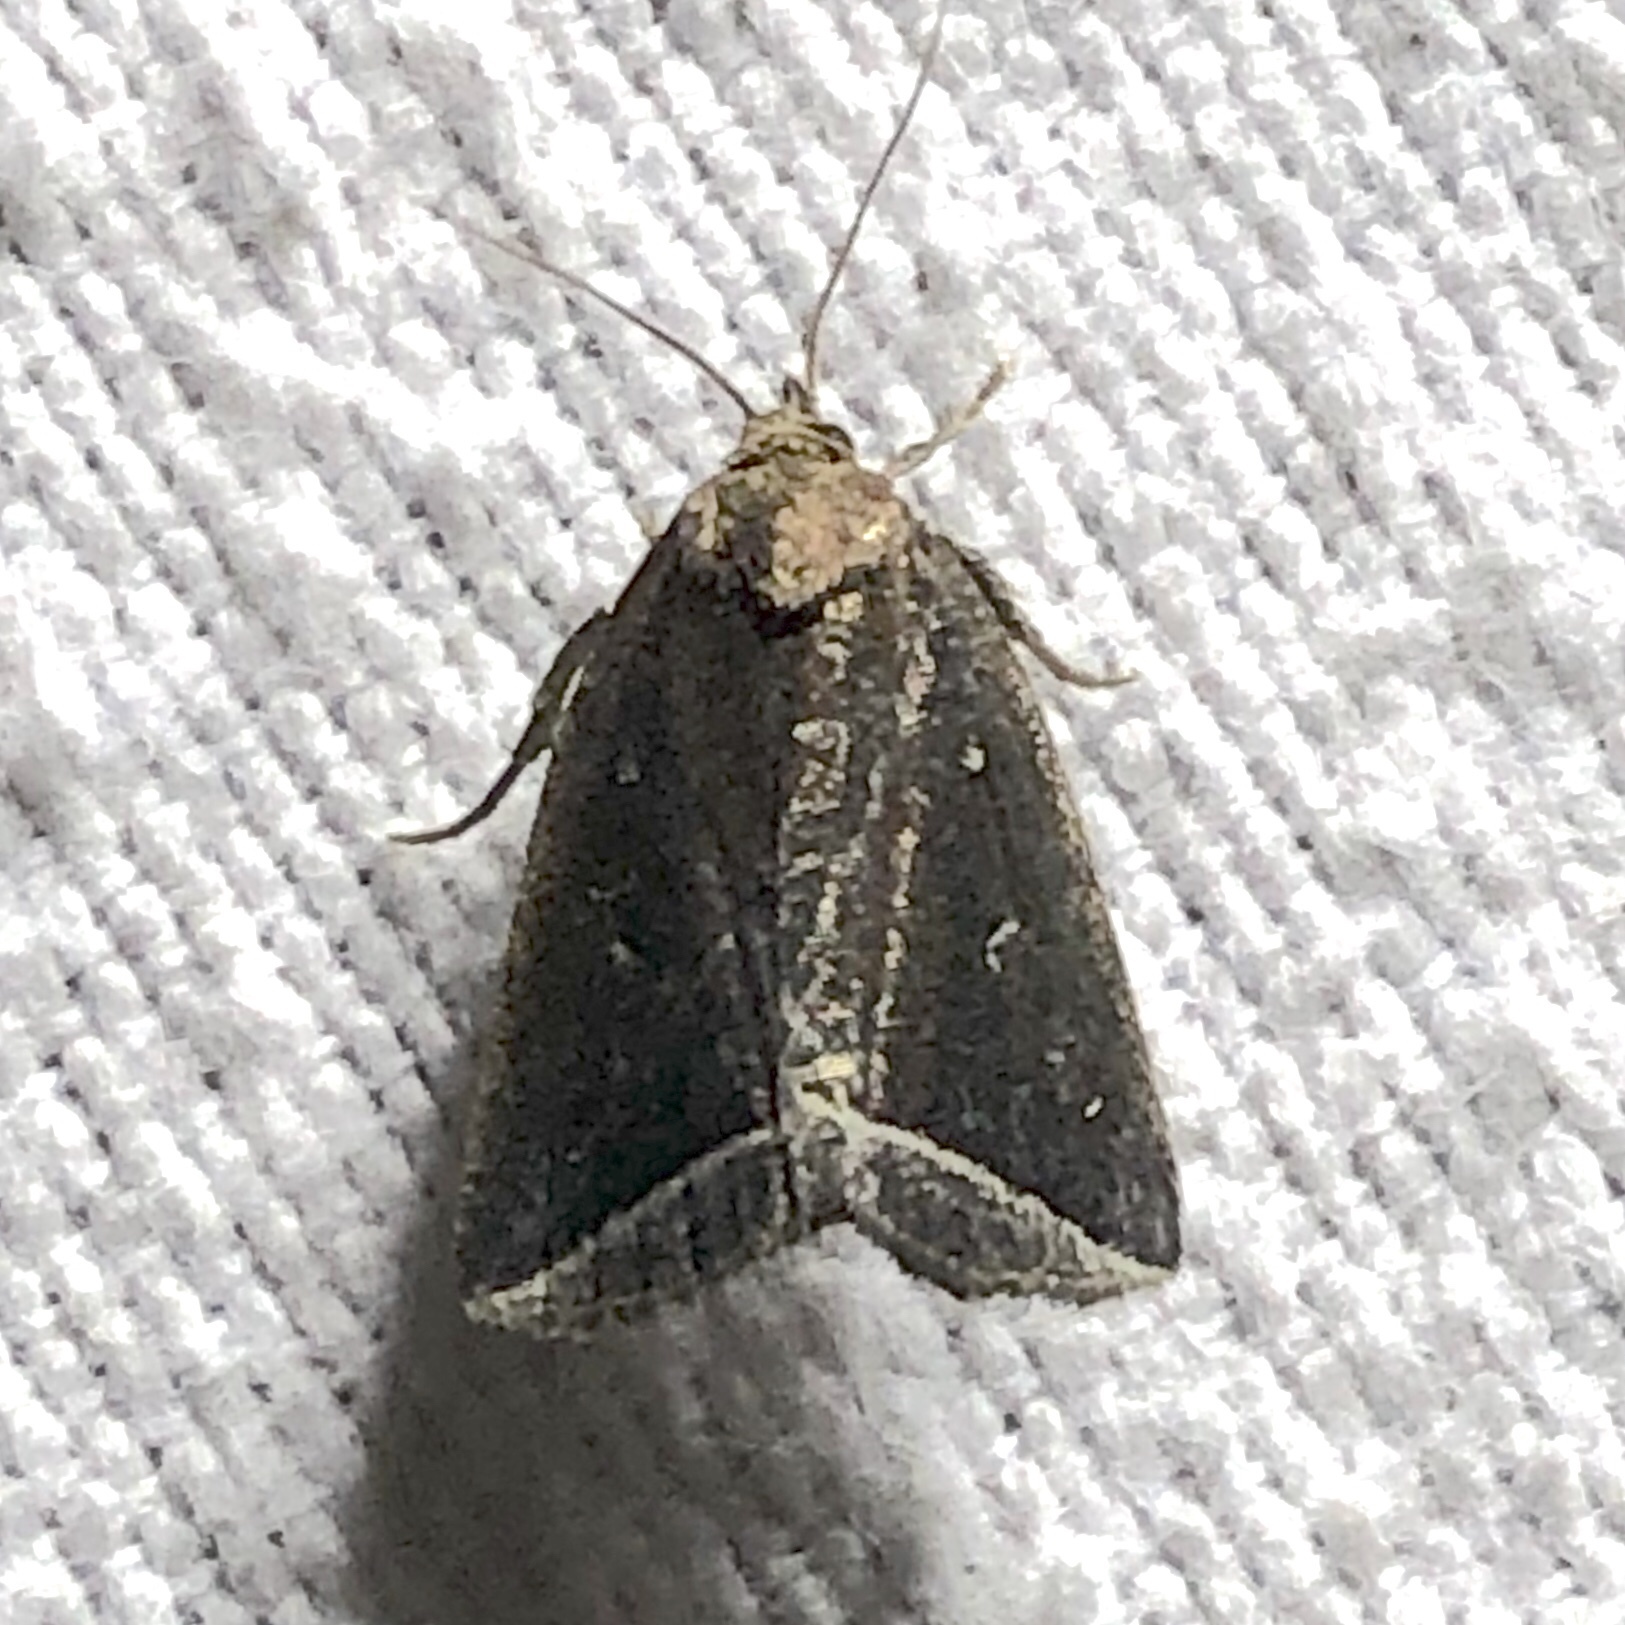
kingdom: Animalia
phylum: Arthropoda
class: Insecta
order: Lepidoptera
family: Erebidae
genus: Capis
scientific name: Capis curvata
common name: Curved halter moth
